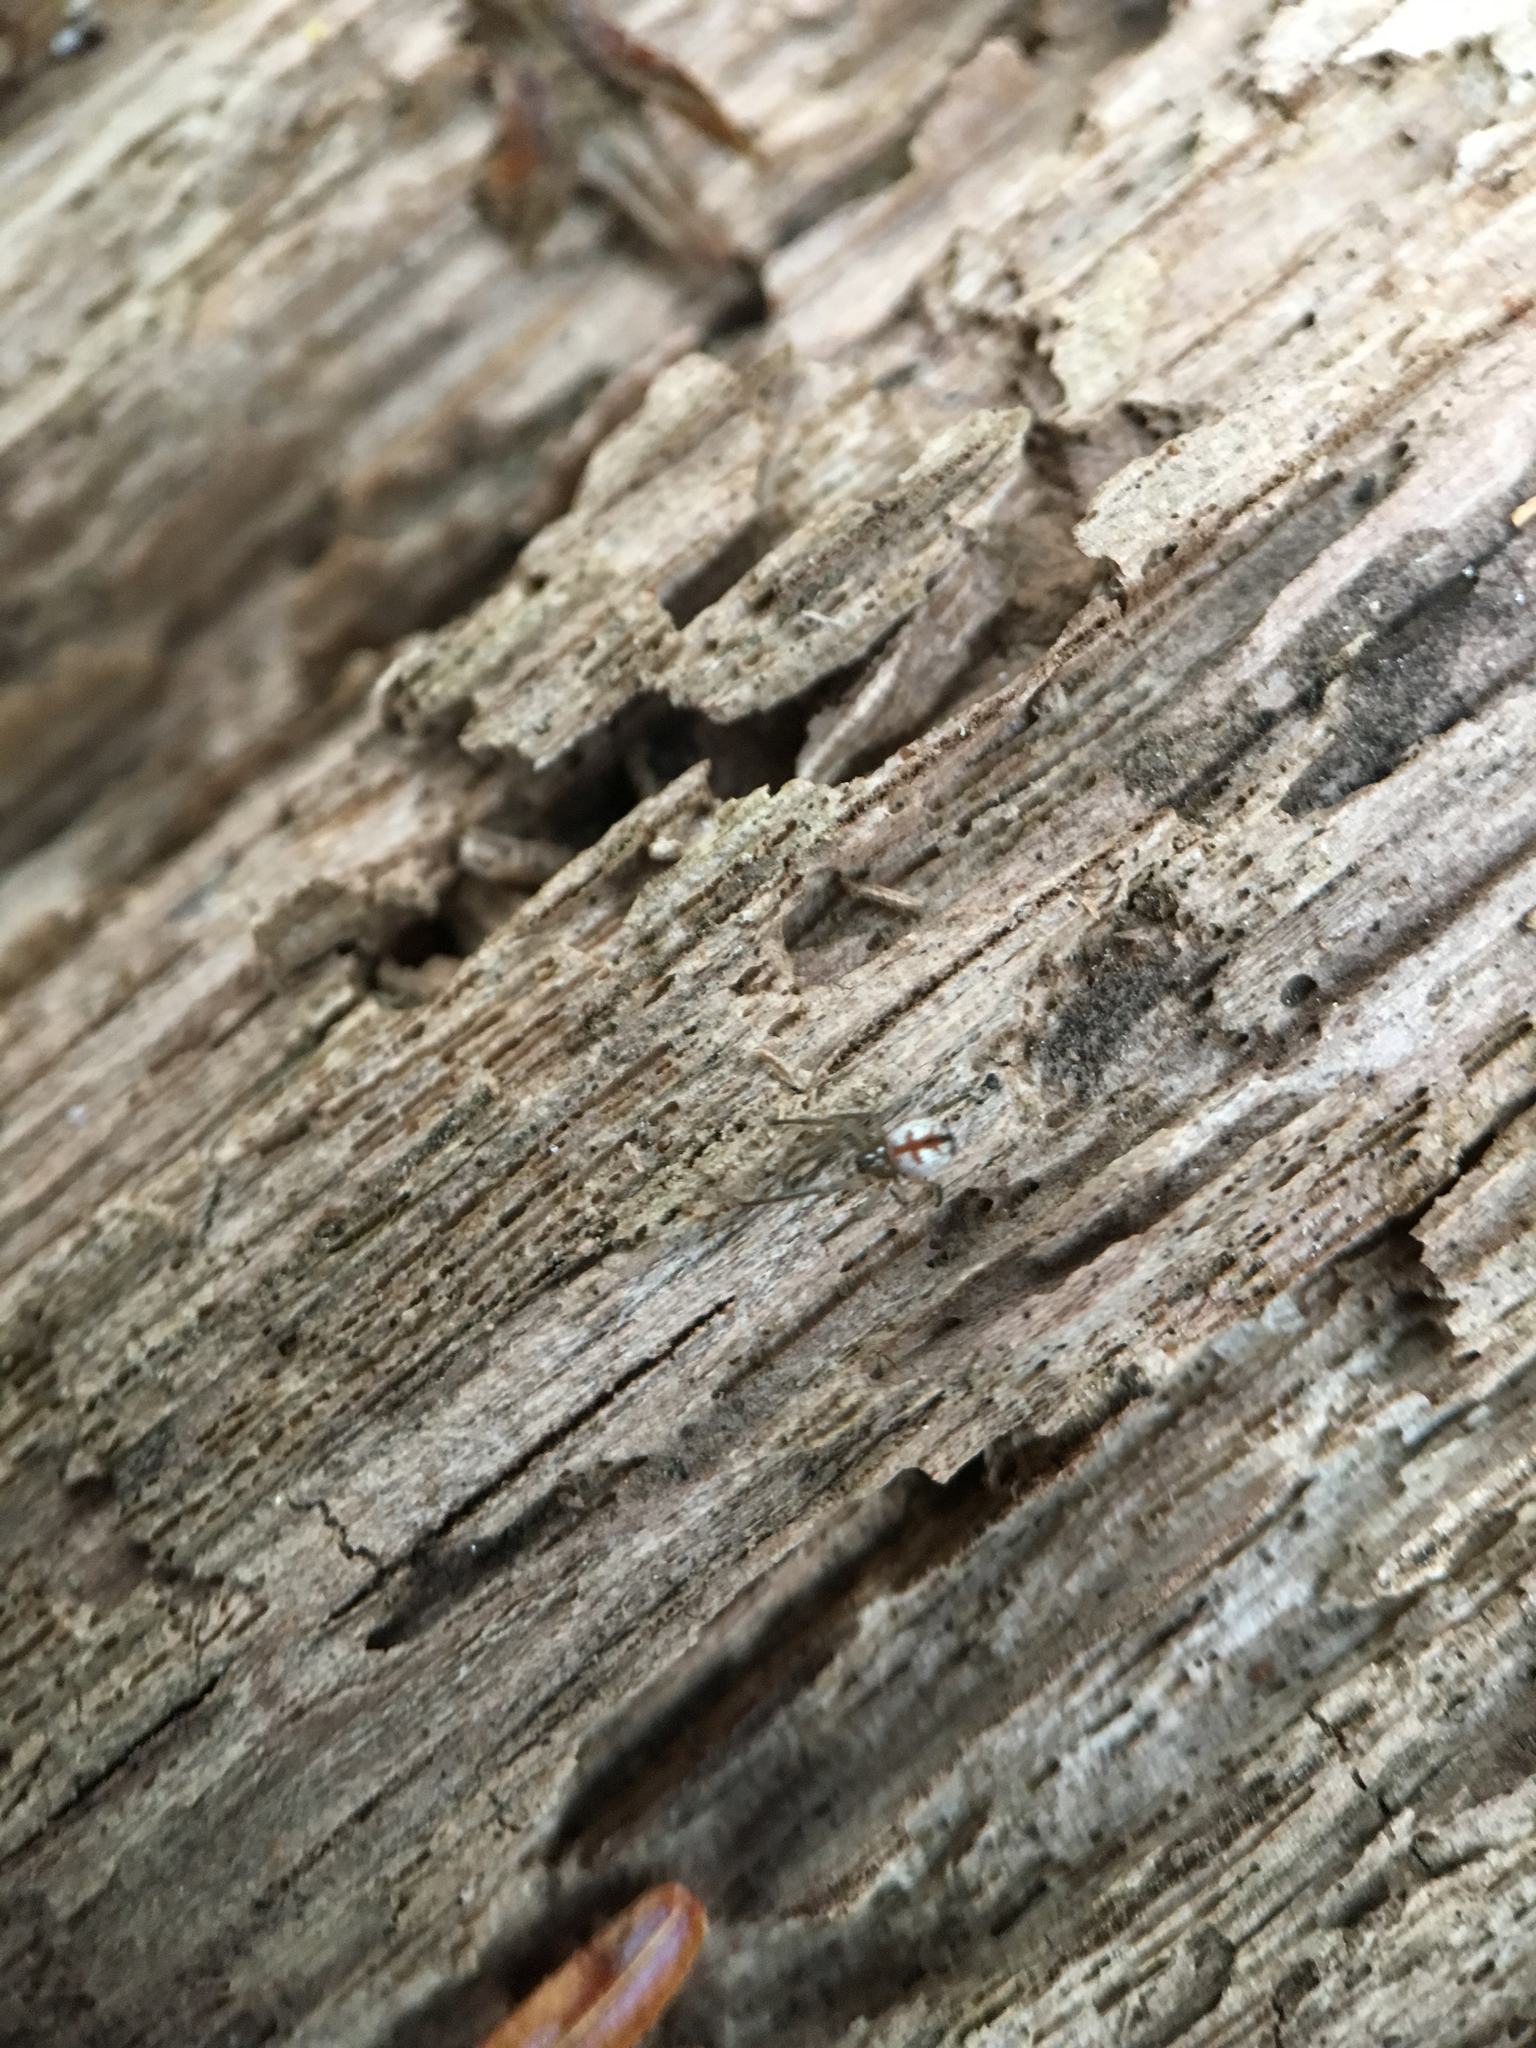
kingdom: Animalia
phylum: Arthropoda
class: Arachnida
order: Araneae
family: Tetragnathidae
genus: Leucauge
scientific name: Leucauge venusta
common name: Longjawed orb weavers
